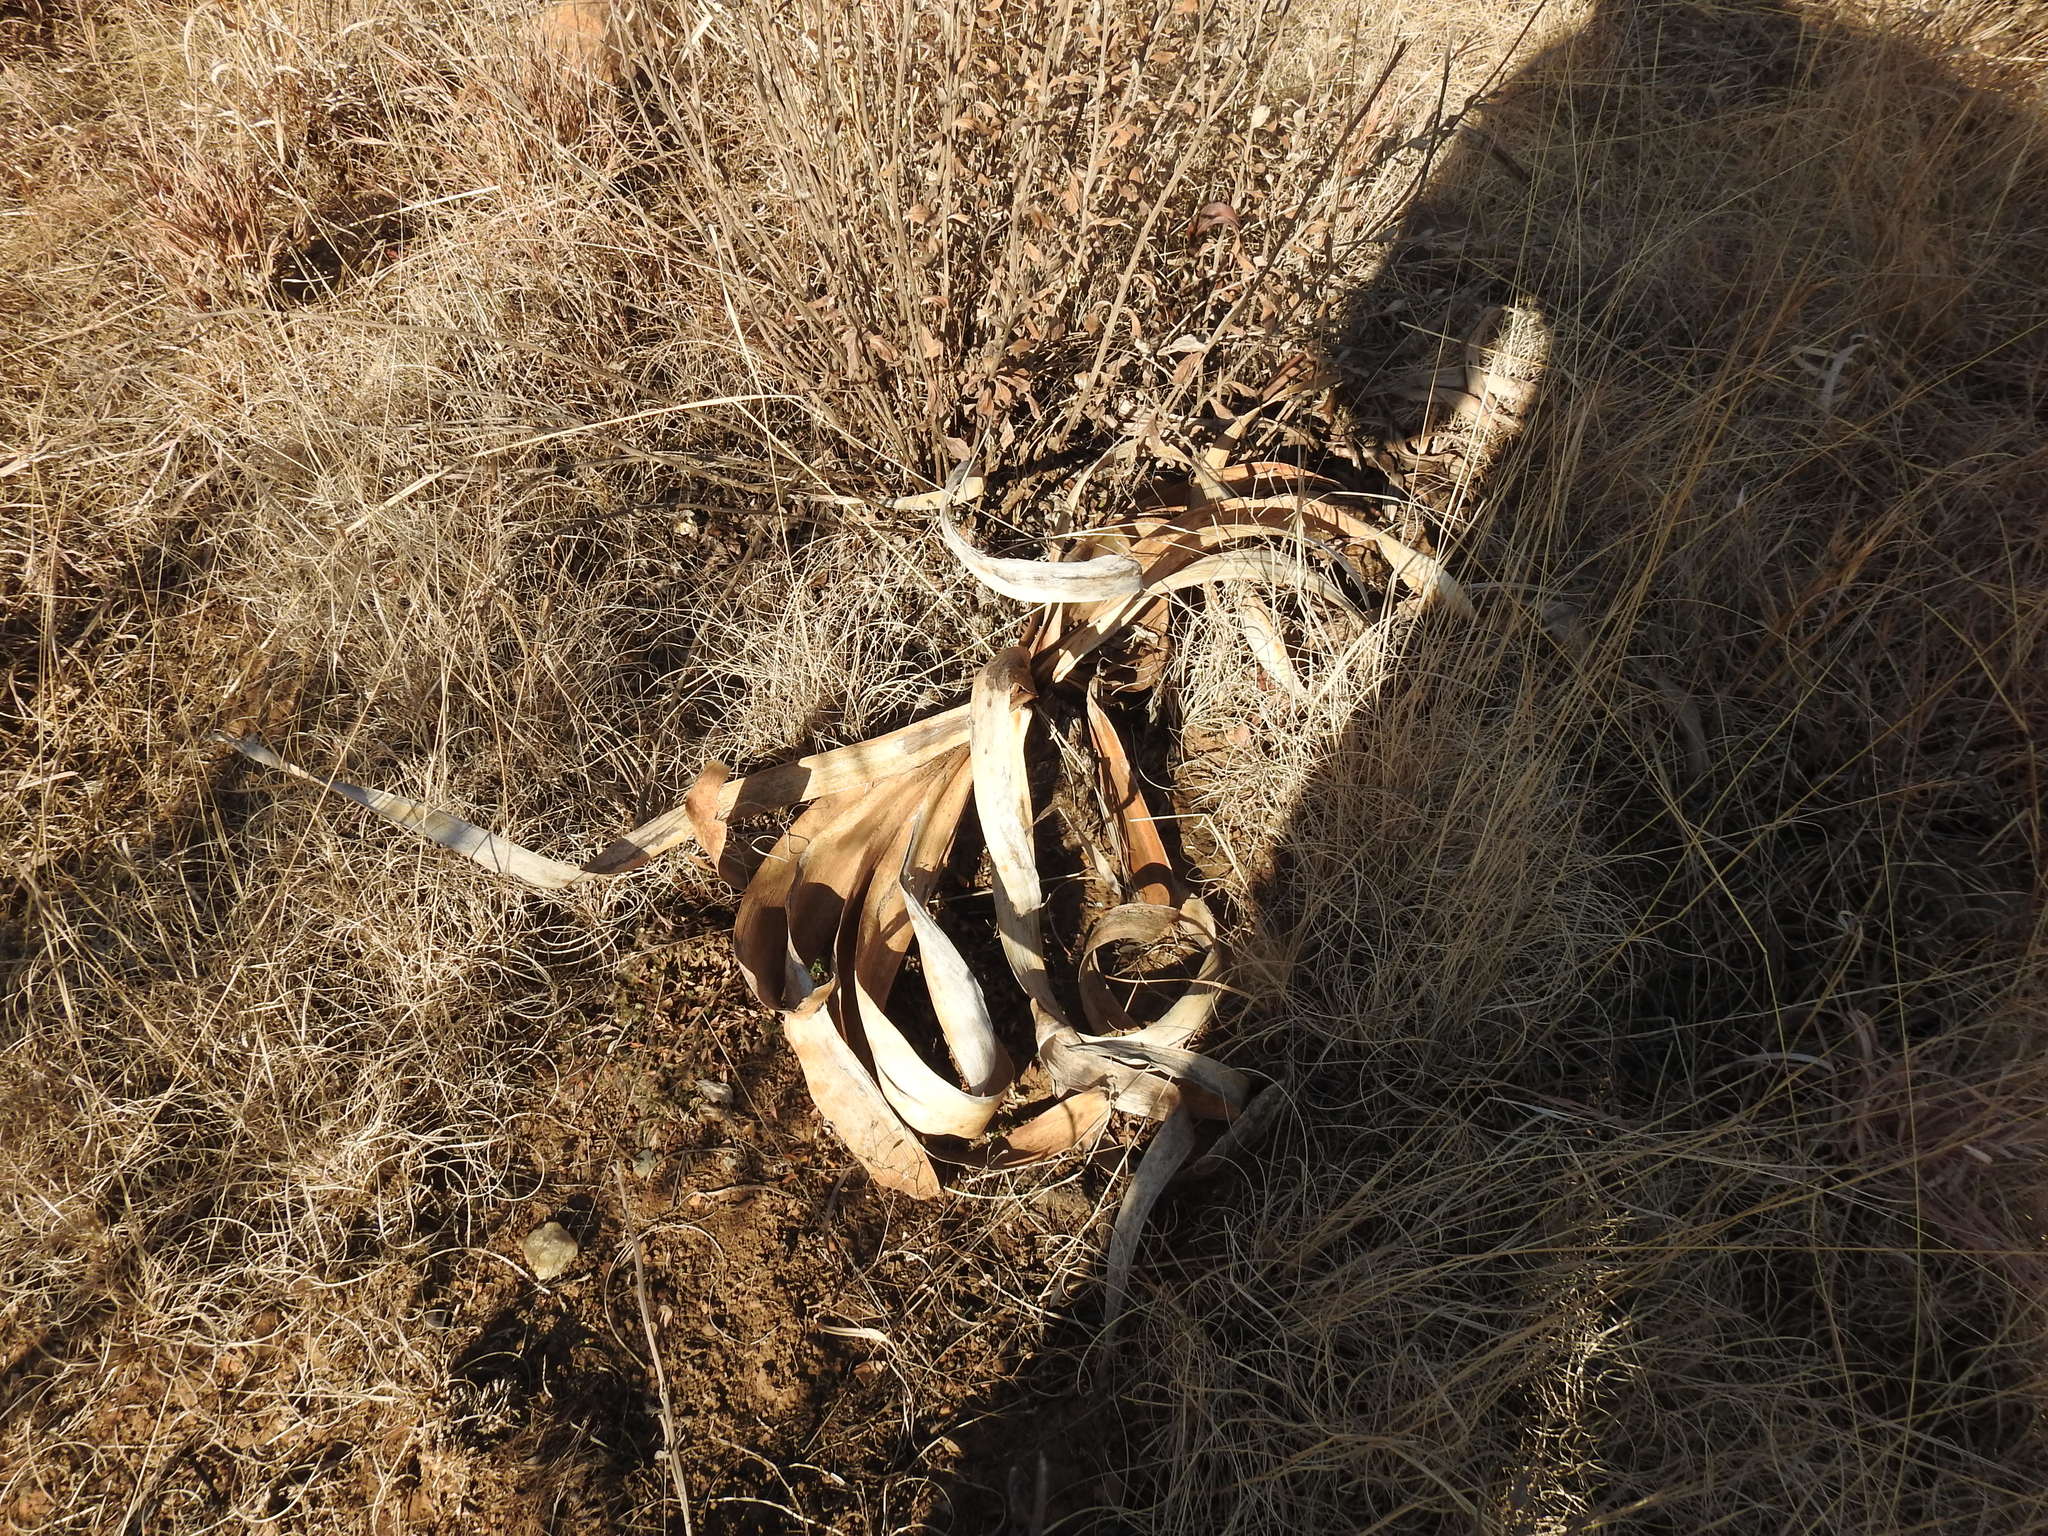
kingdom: Plantae
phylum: Tracheophyta
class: Liliopsida
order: Asparagales
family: Amaryllidaceae
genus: Boophone
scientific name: Boophone disticha
